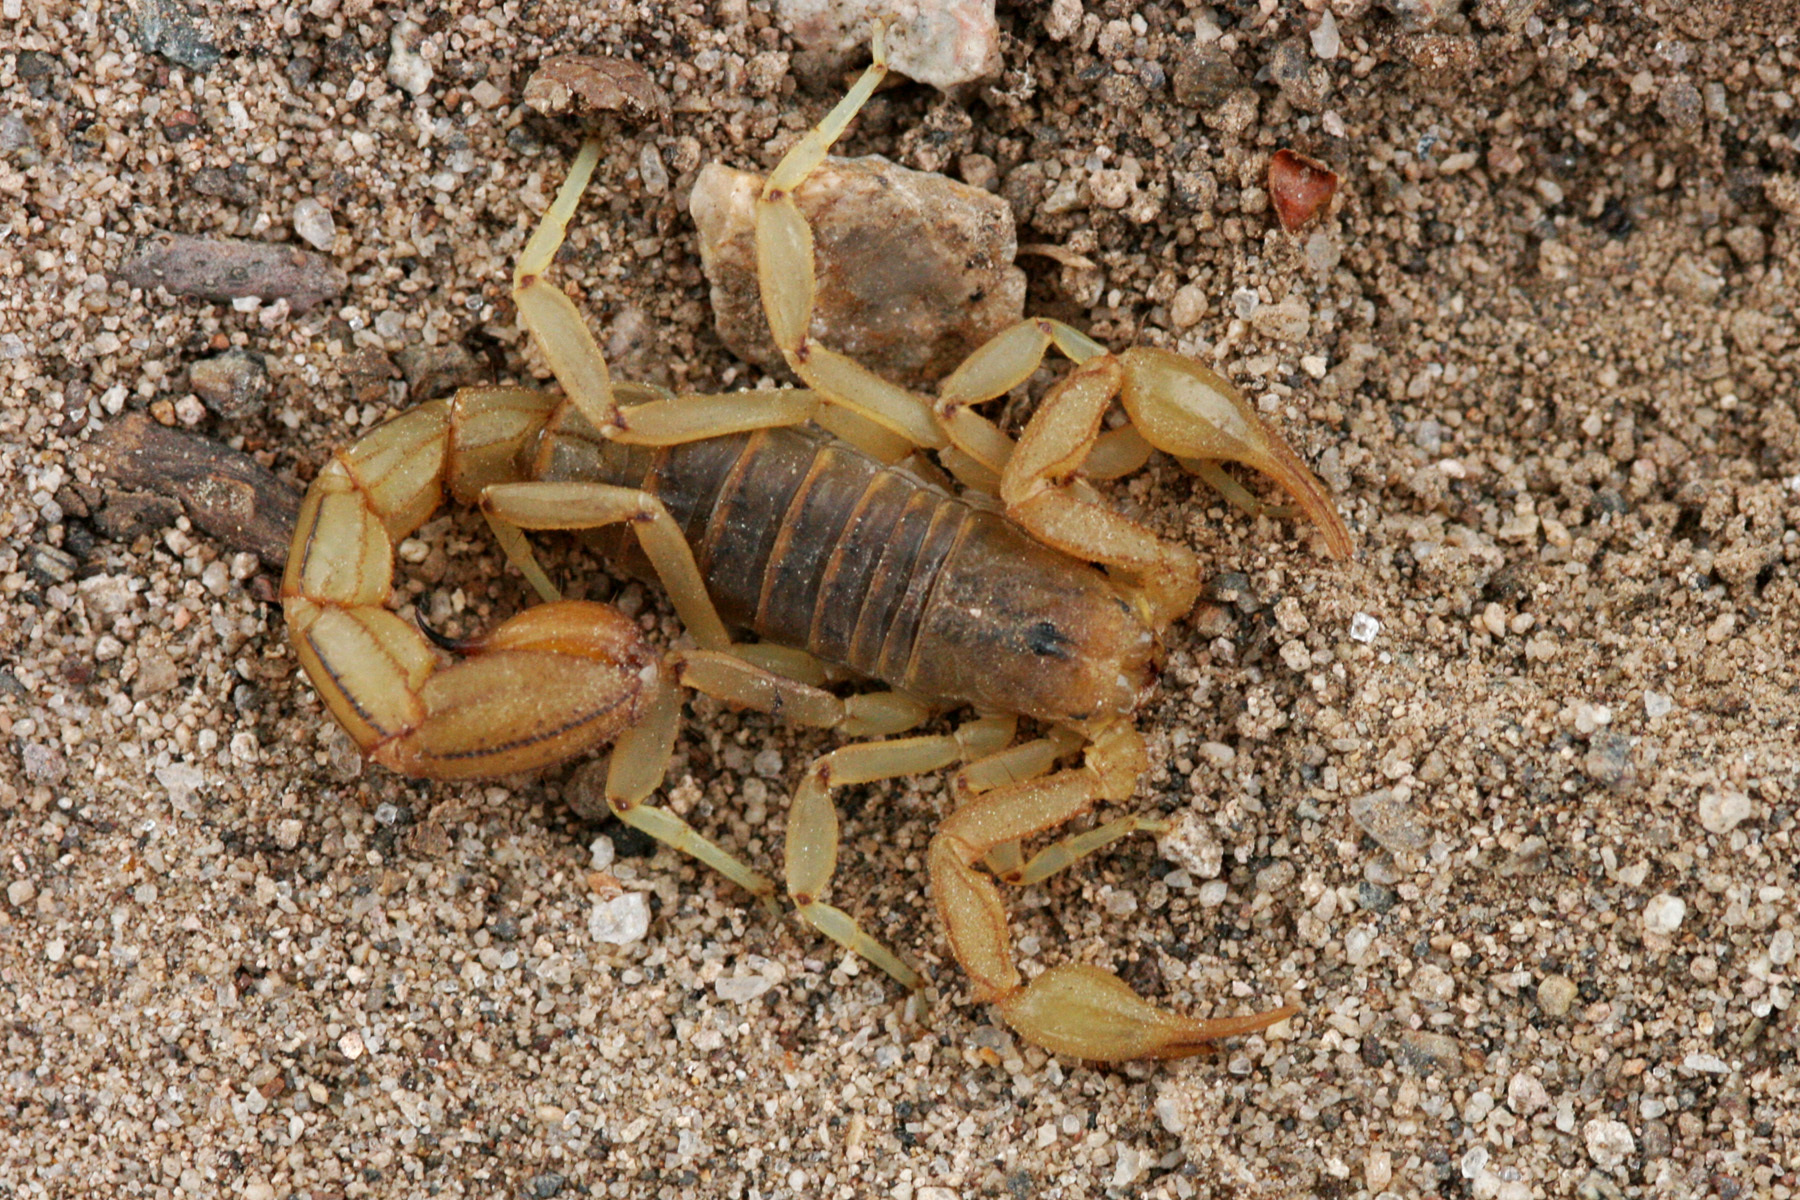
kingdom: Animalia
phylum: Arthropoda
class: Arachnida
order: Scorpiones
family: Vaejovidae
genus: Paravaejovis
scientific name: Paravaejovis spinigerus
